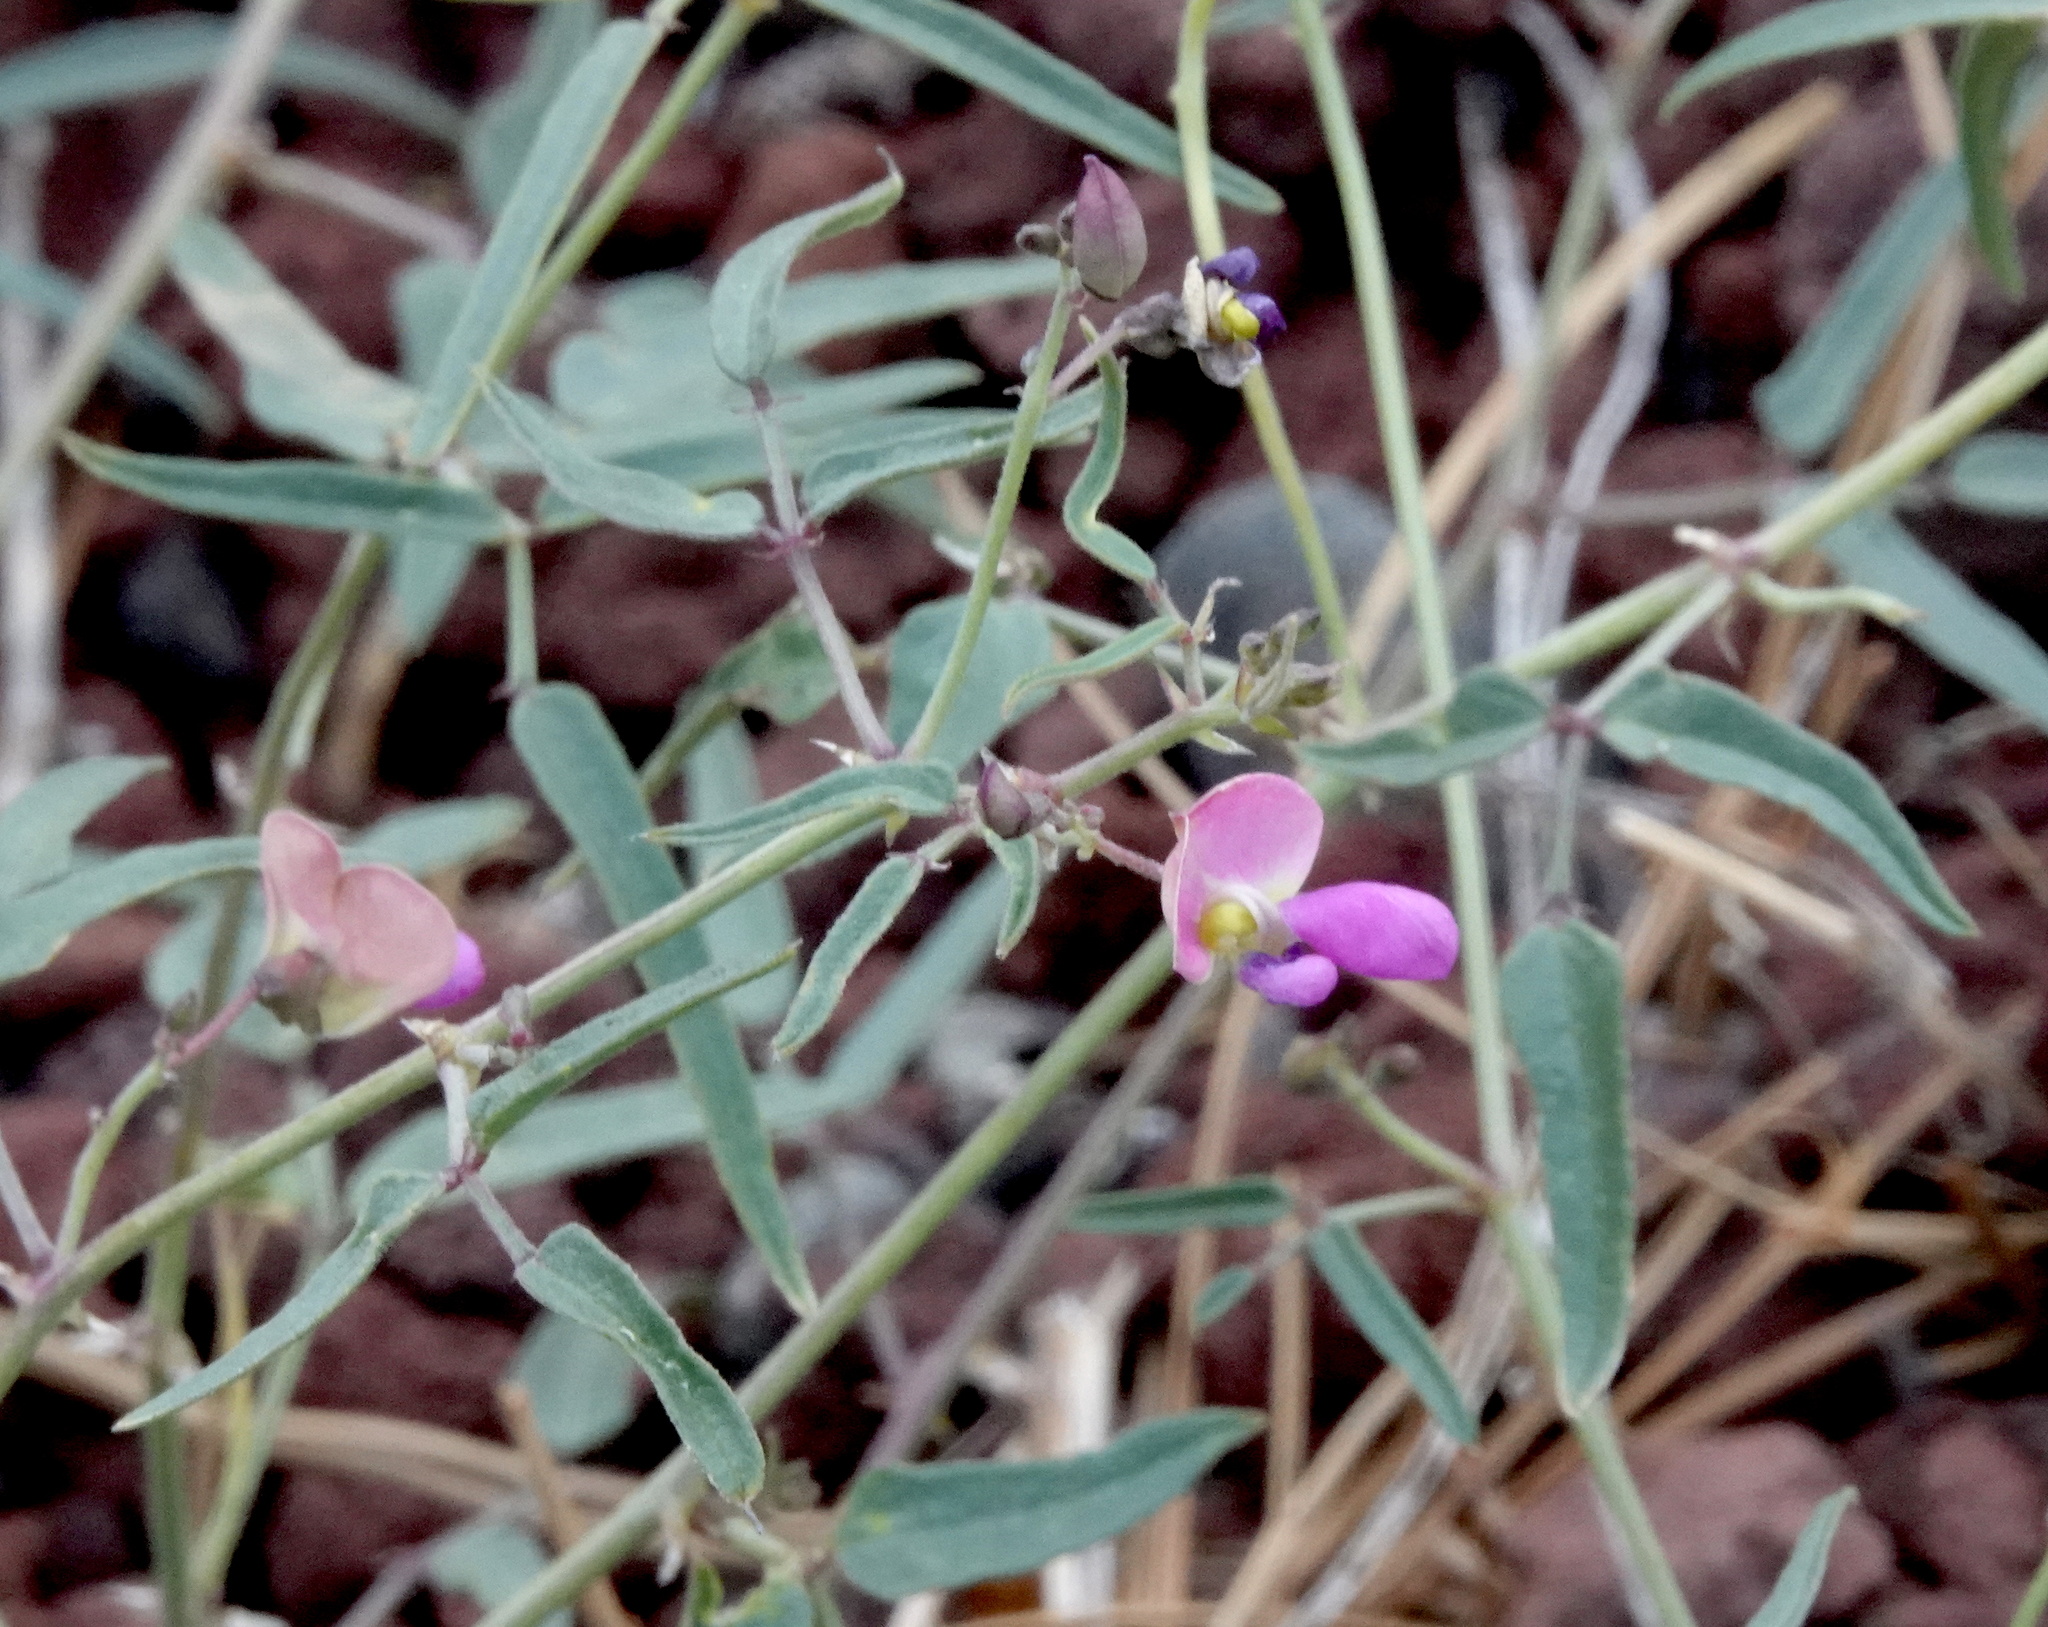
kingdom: Plantae
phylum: Tracheophyta
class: Magnoliopsida
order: Fabales
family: Fabaceae
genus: Phaseolus
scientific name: Phaseolus angustissimus
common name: Slimleaf bean
